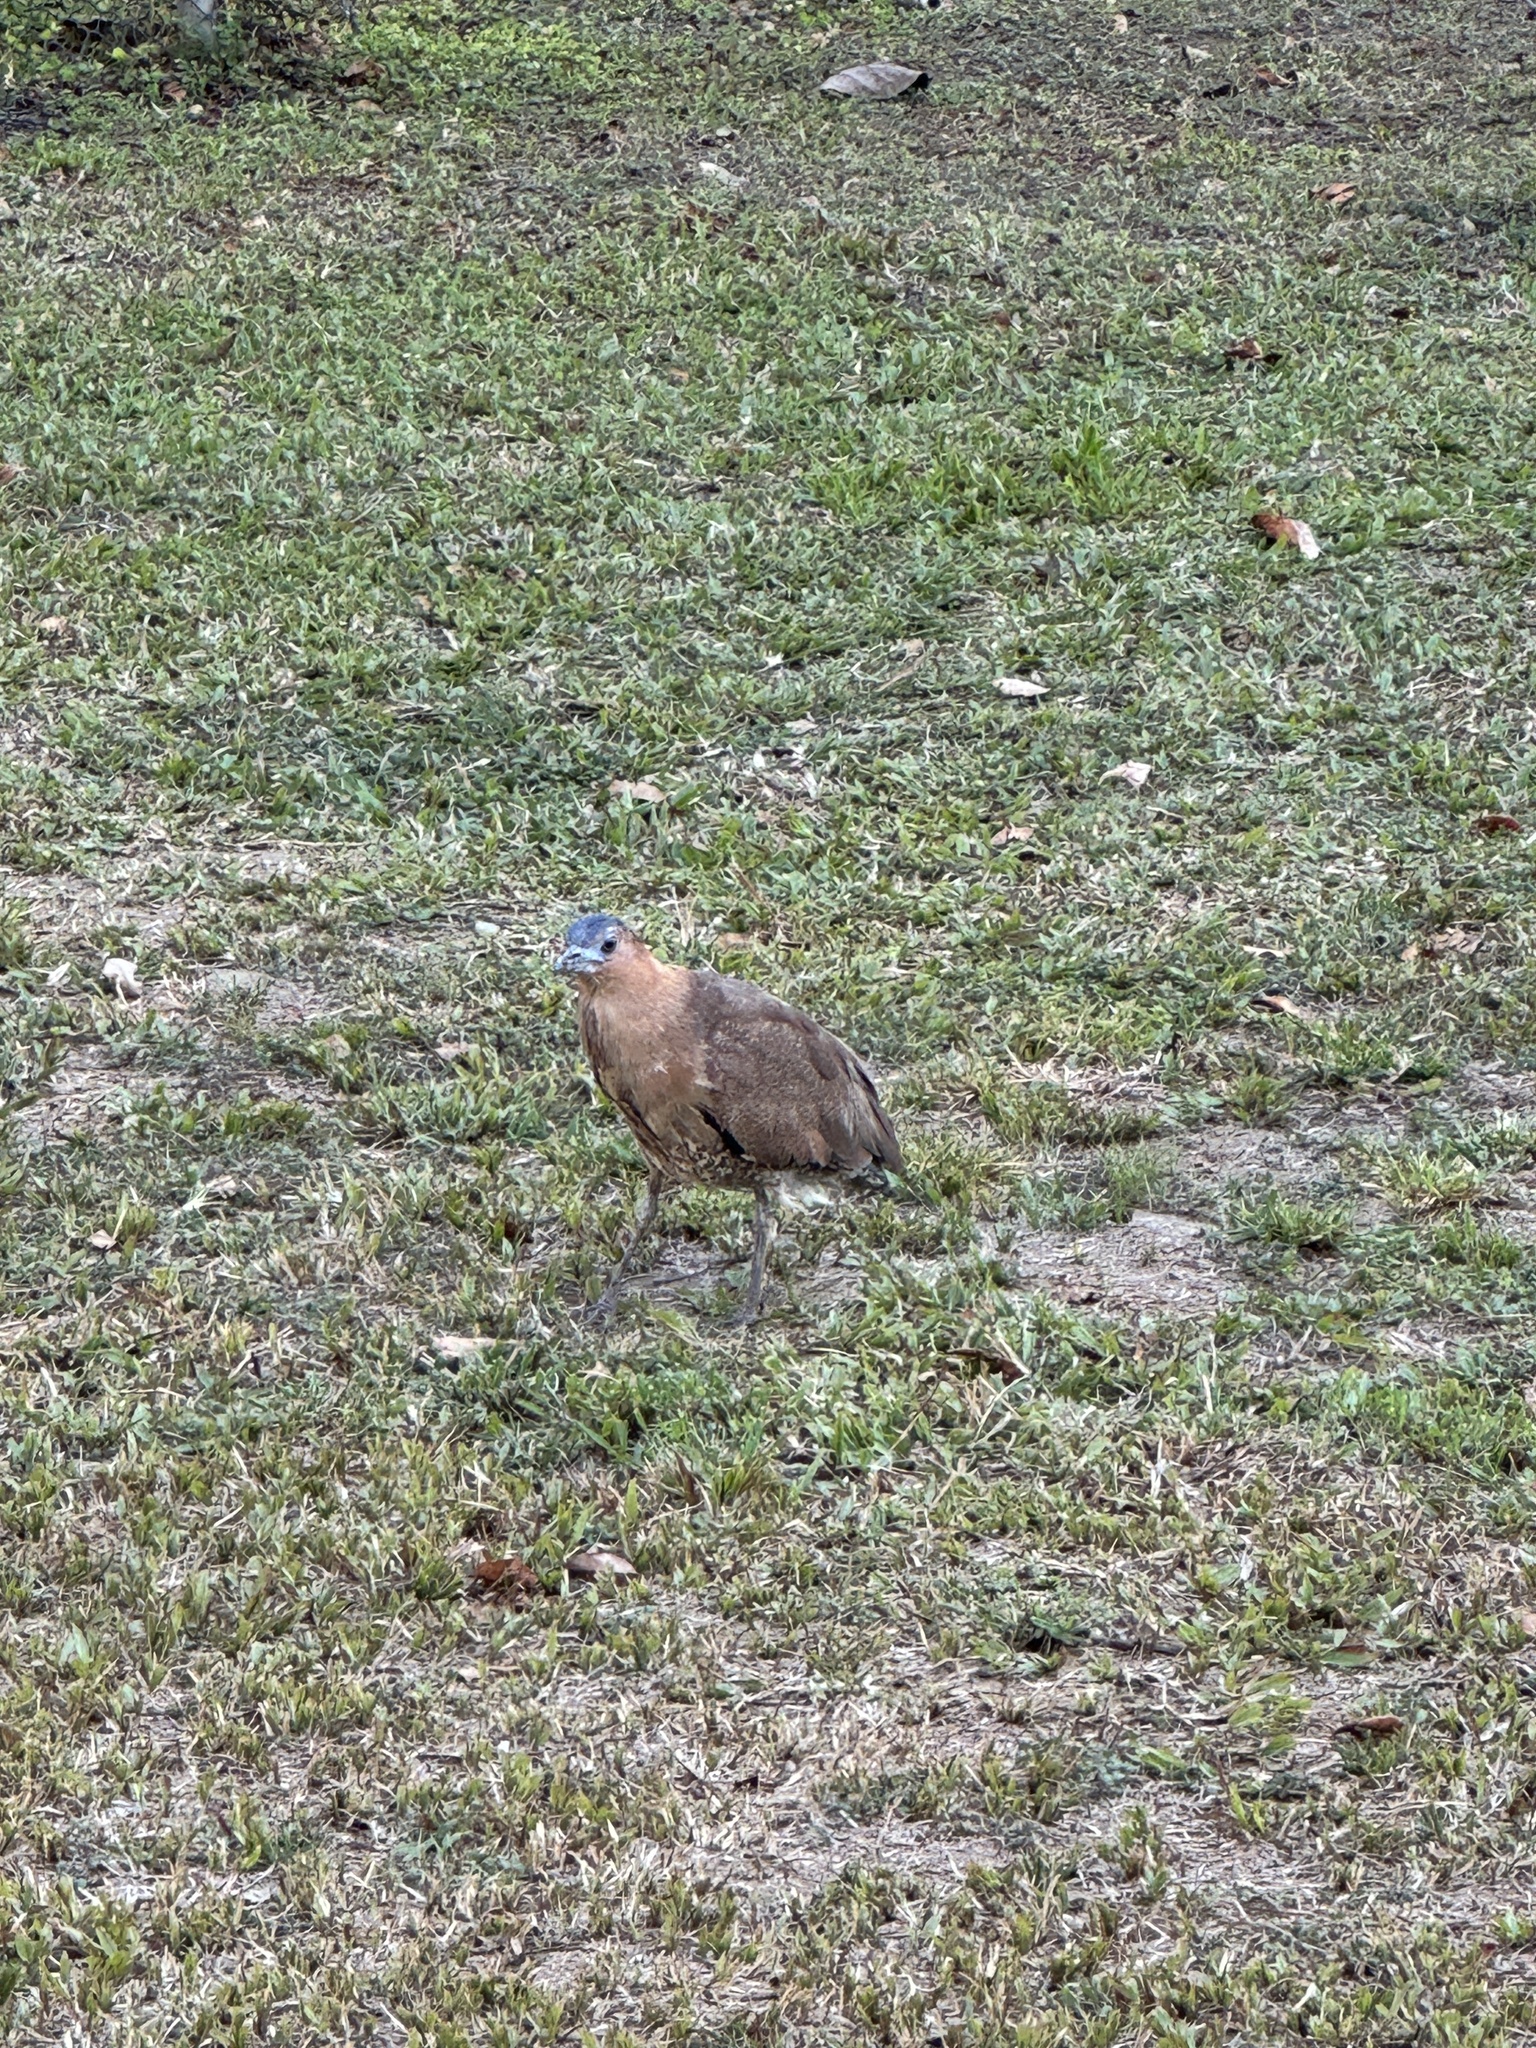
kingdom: Animalia
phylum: Chordata
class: Aves
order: Pelecaniformes
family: Ardeidae
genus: Gorsachius
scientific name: Gorsachius melanolophus
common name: Malayan night heron
